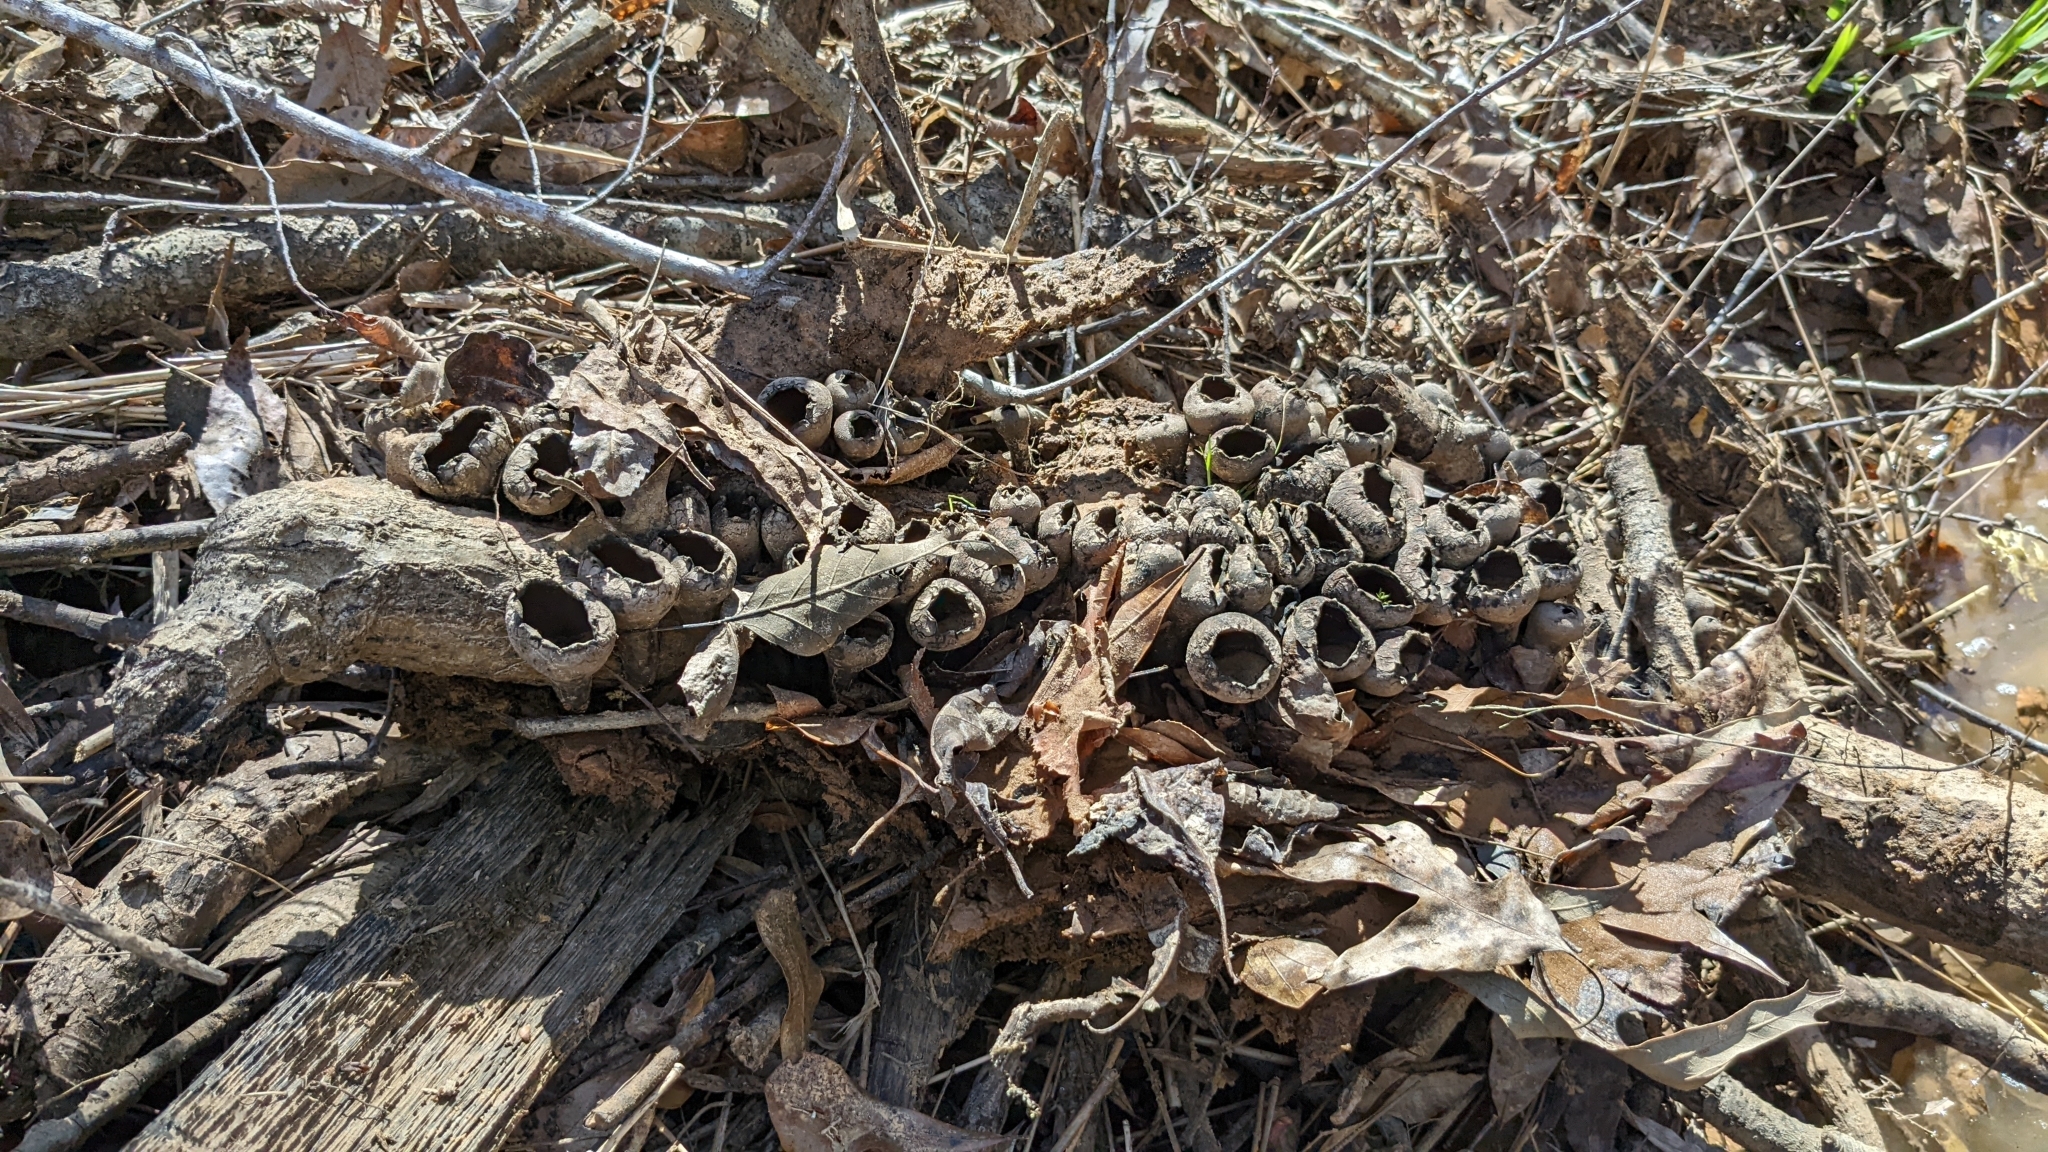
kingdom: Fungi
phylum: Ascomycota
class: Pezizomycetes
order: Pezizales
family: Sarcosomataceae
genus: Urnula
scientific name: Urnula craterium
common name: Devil's urn
